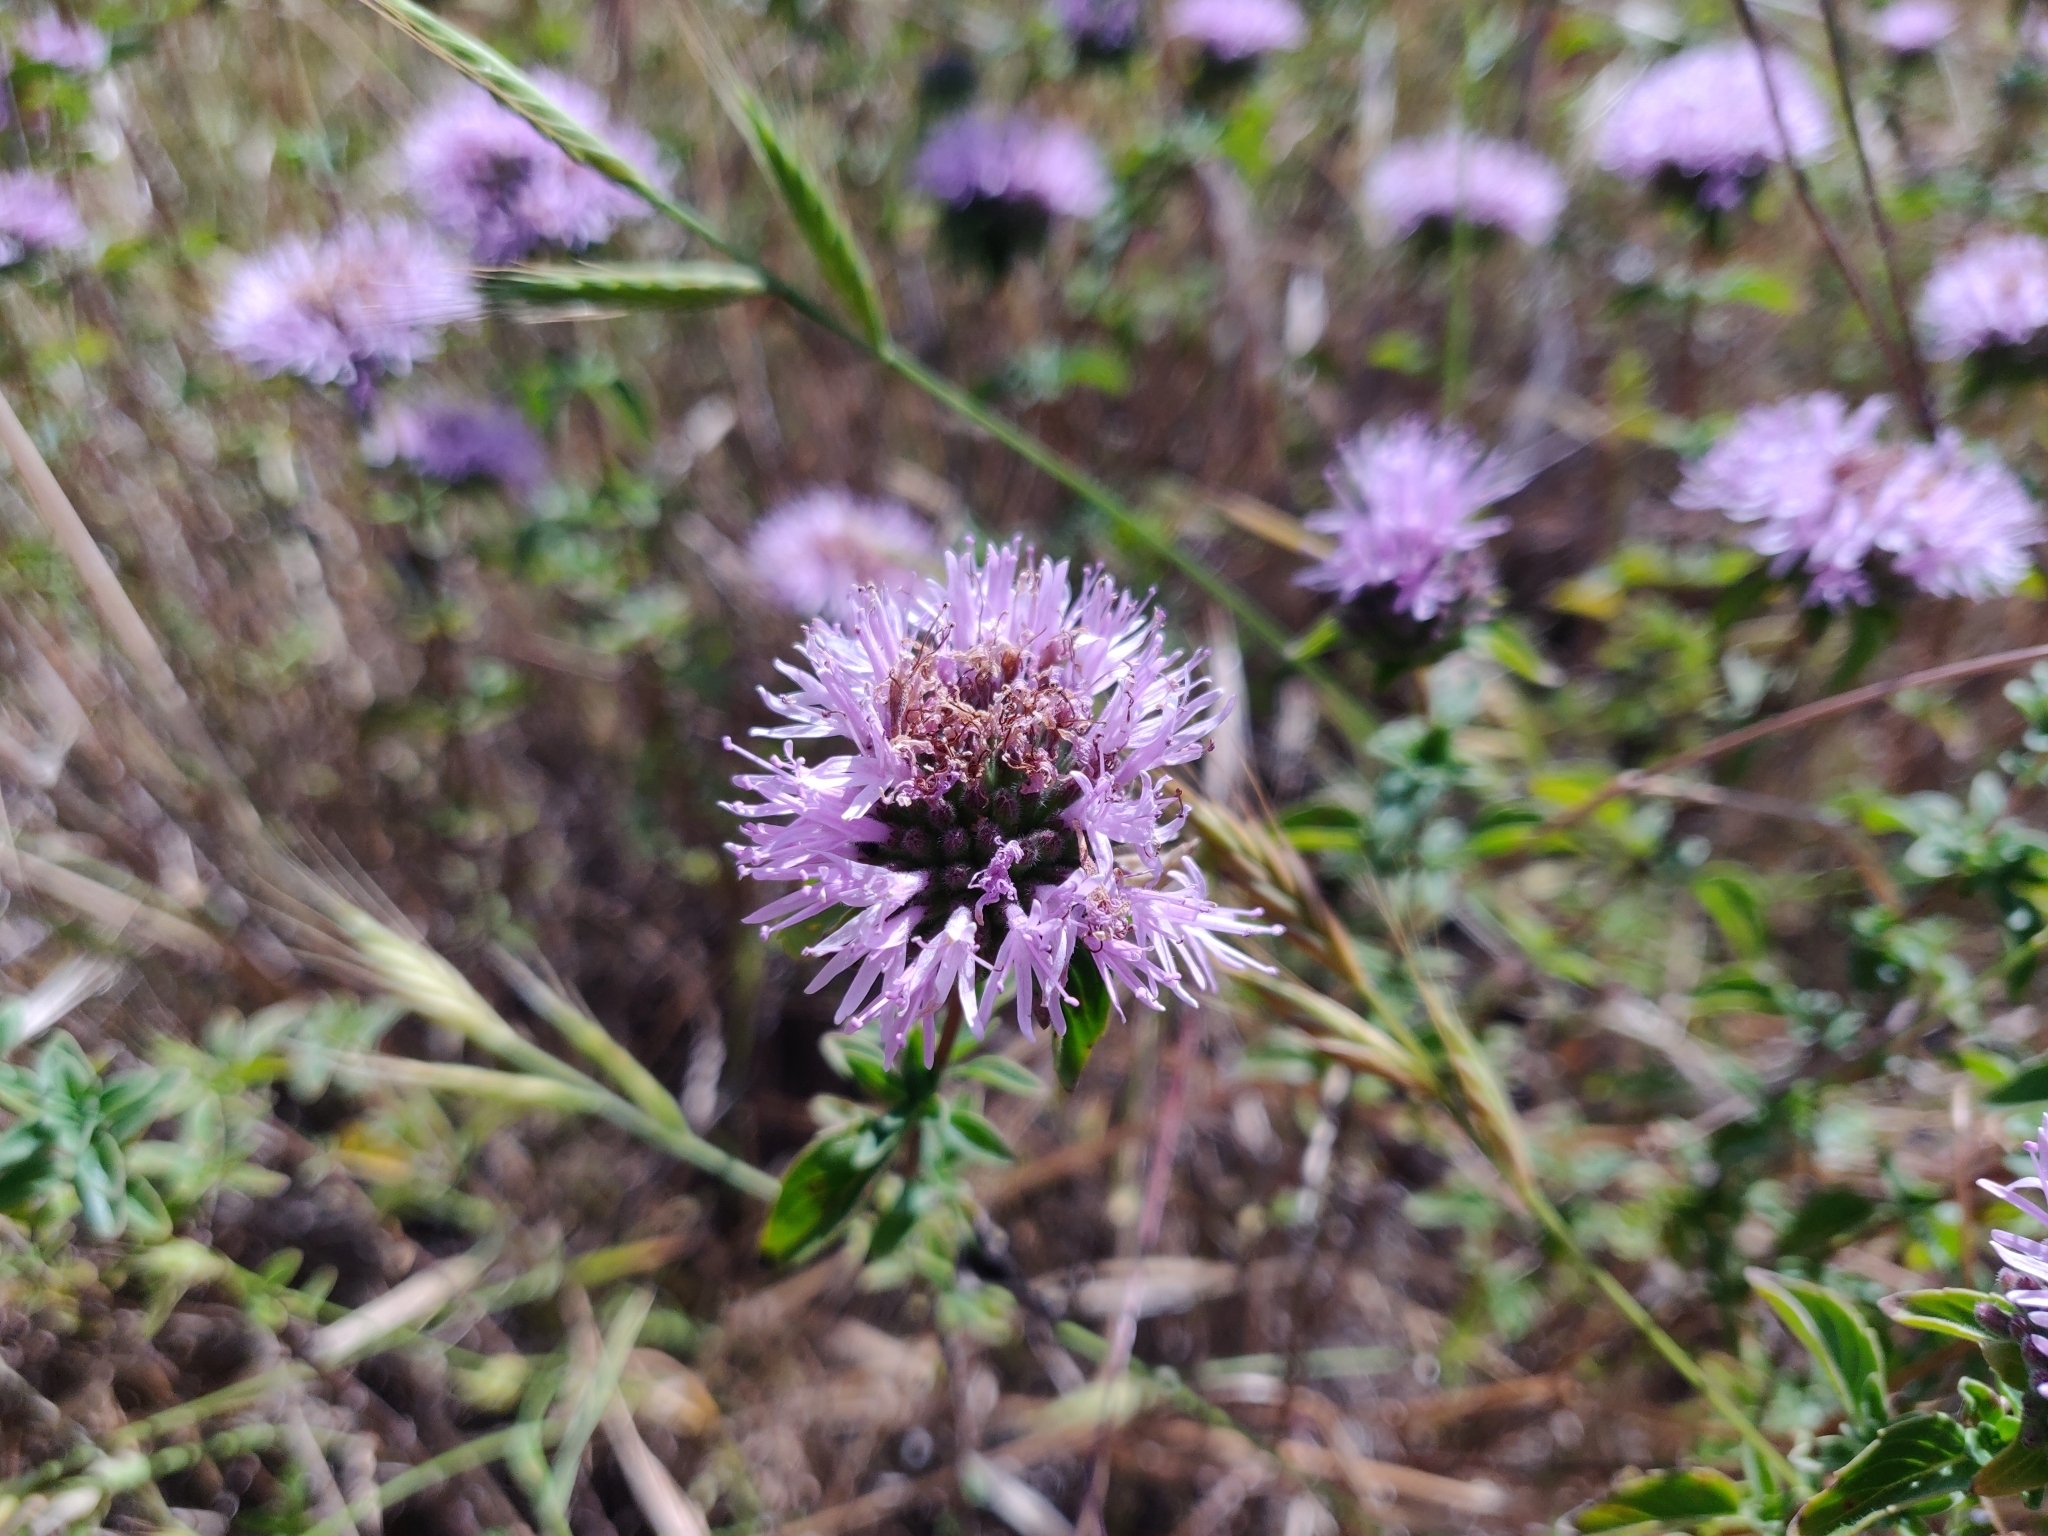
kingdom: Plantae
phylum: Tracheophyta
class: Magnoliopsida
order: Lamiales
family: Lamiaceae
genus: Monardella
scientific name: Monardella odoratissima
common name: Pacific monardella
